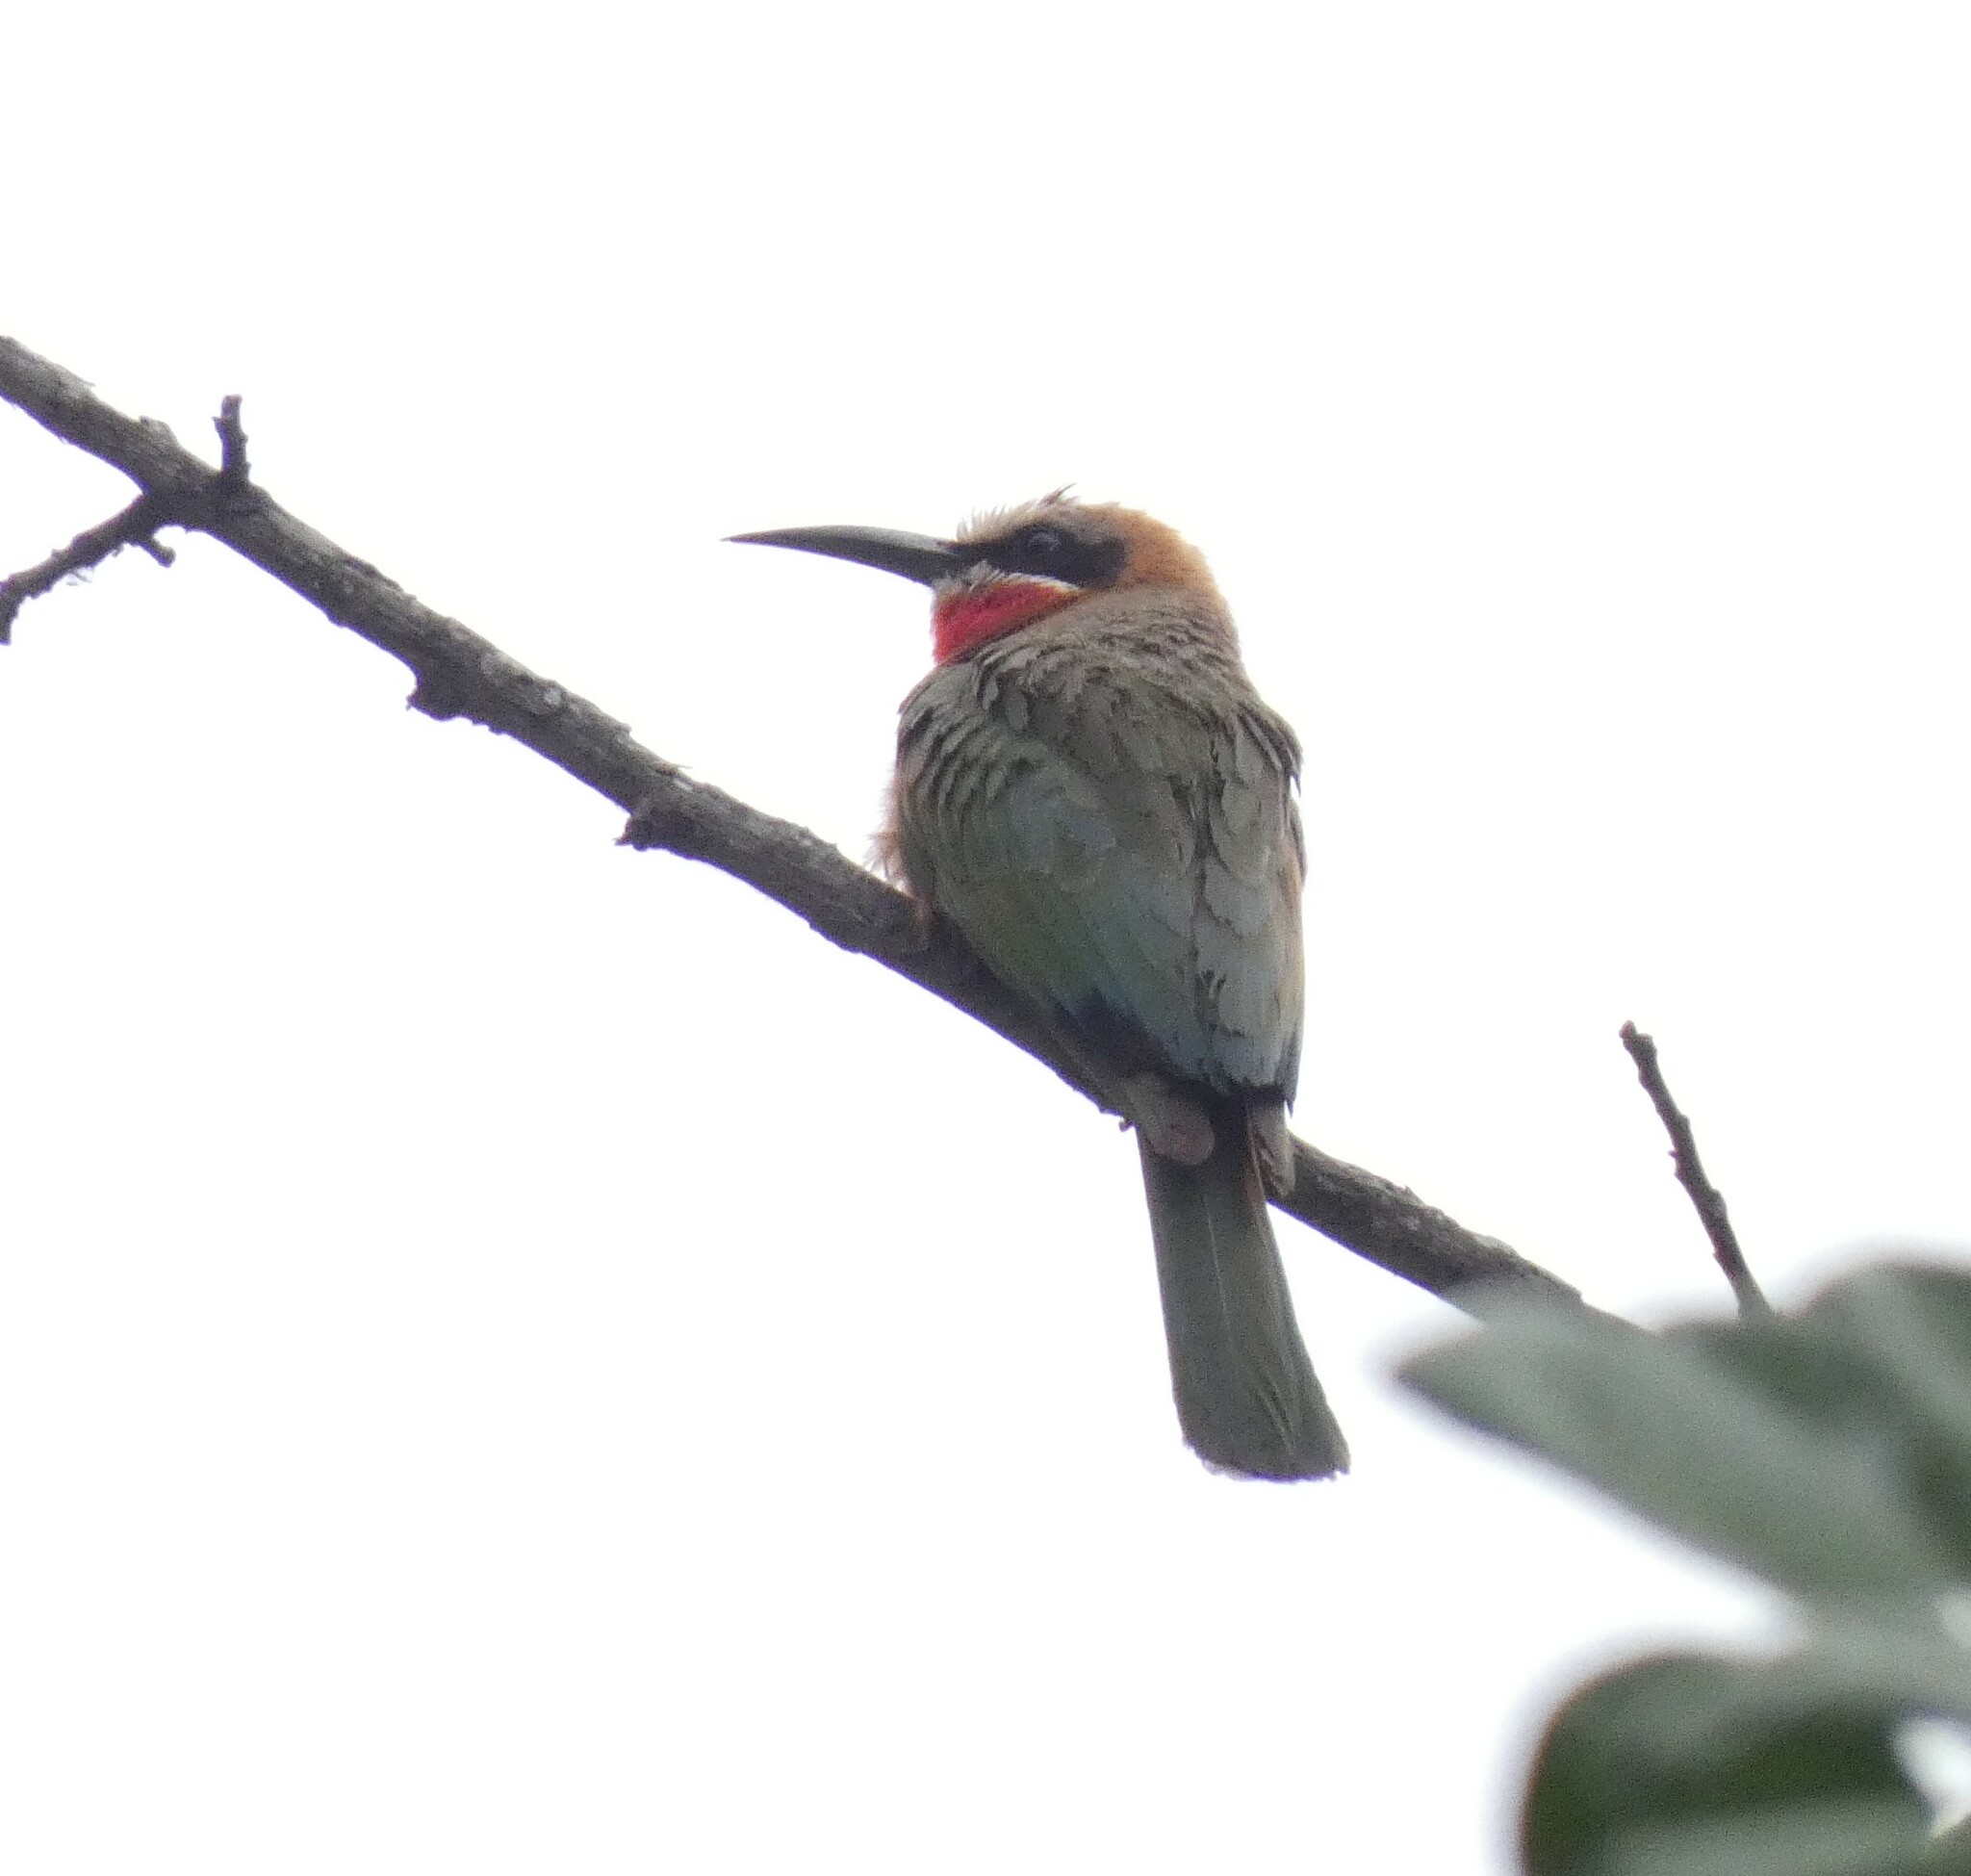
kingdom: Animalia
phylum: Chordata
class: Aves
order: Coraciiformes
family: Meropidae
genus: Merops
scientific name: Merops bullockoides
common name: White-fronted bee-eater
